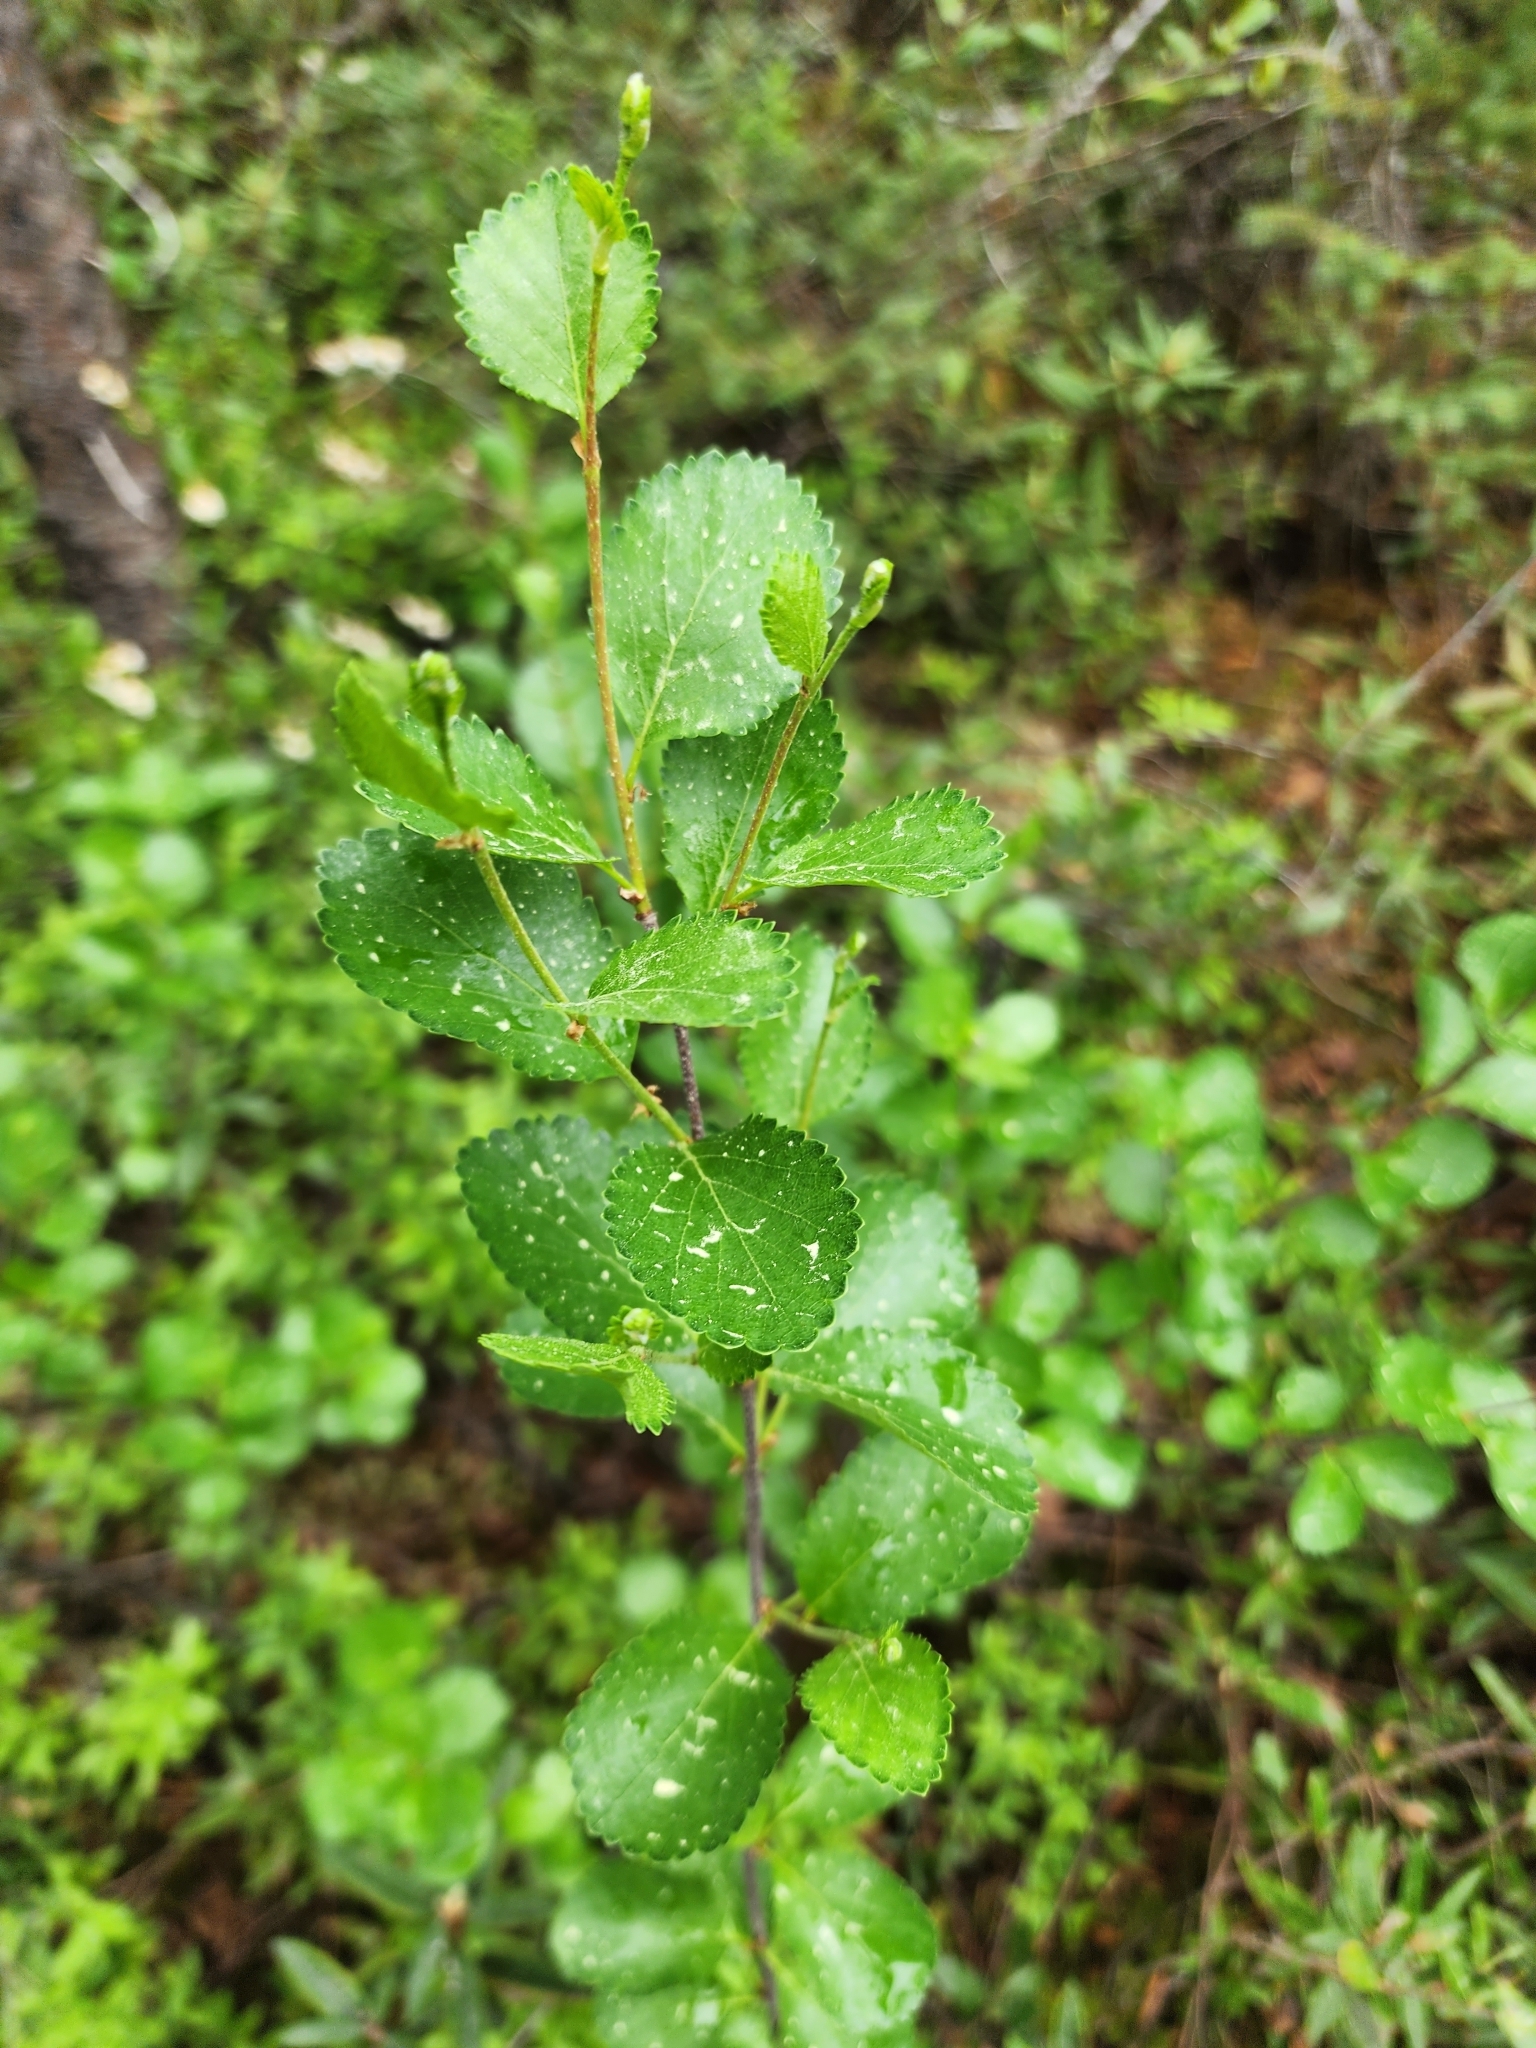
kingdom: Plantae
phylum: Tracheophyta
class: Magnoliopsida
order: Fagales
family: Betulaceae
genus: Betula
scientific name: Betula pumila
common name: Bog birch
